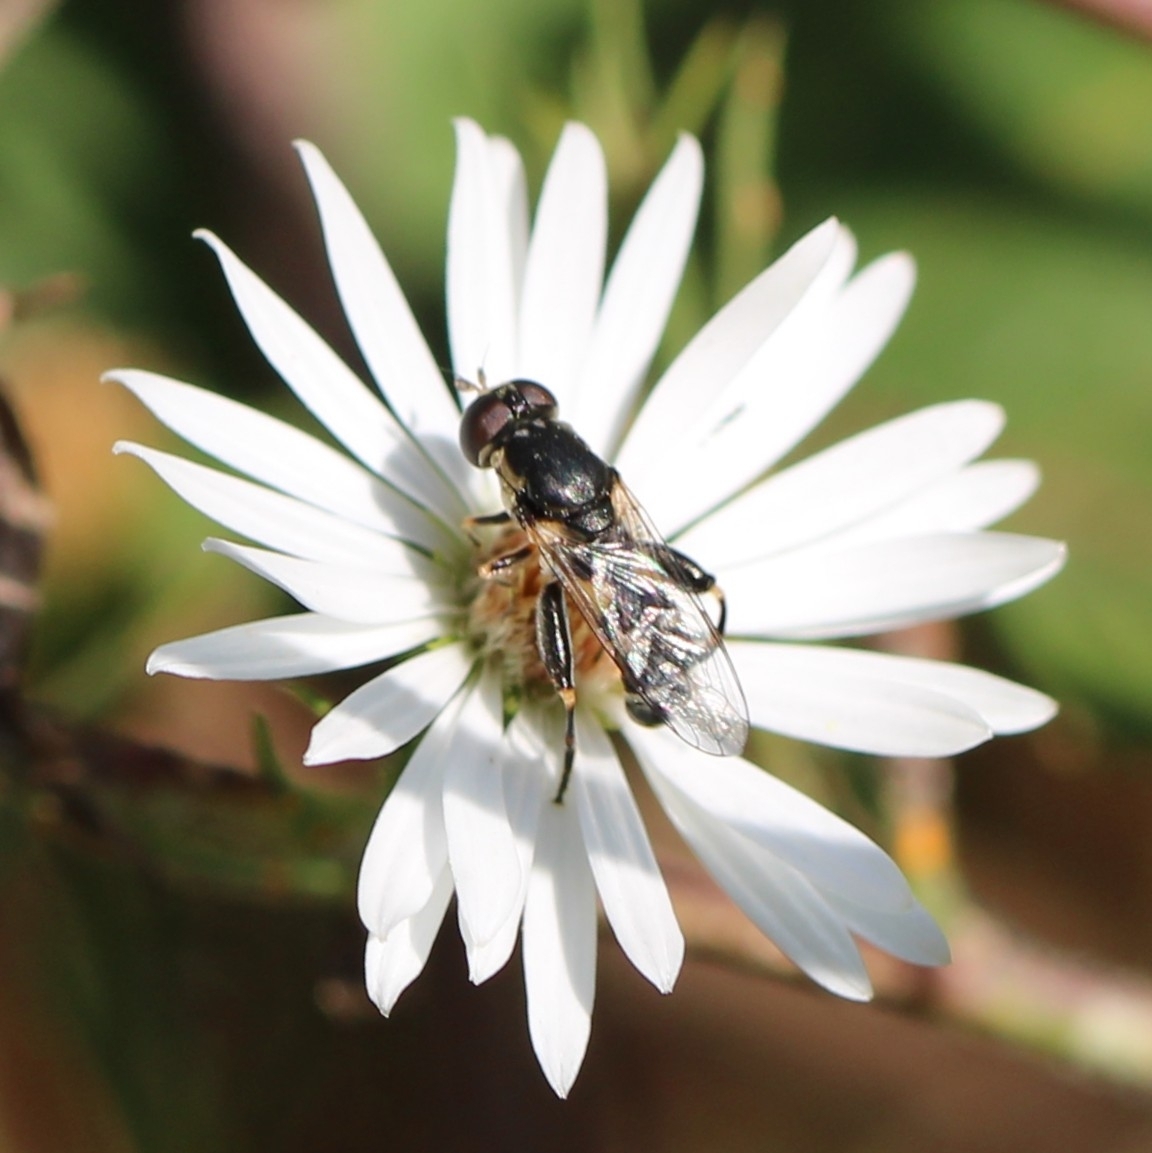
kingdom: Animalia
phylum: Arthropoda
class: Insecta
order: Diptera
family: Syrphidae
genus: Syritta
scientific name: Syritta pipiens
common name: Hover fly
